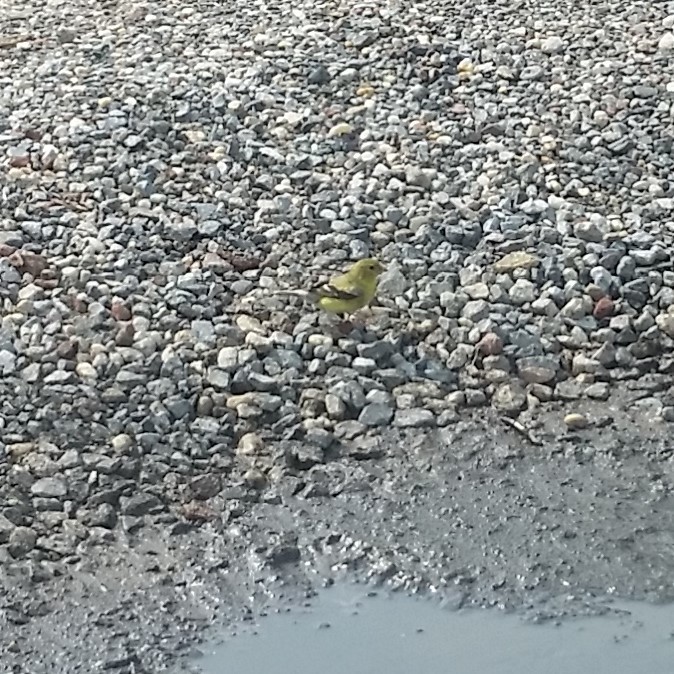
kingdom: Animalia
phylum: Chordata
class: Aves
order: Passeriformes
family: Fringillidae
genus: Spinus
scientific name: Spinus tristis
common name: American goldfinch
